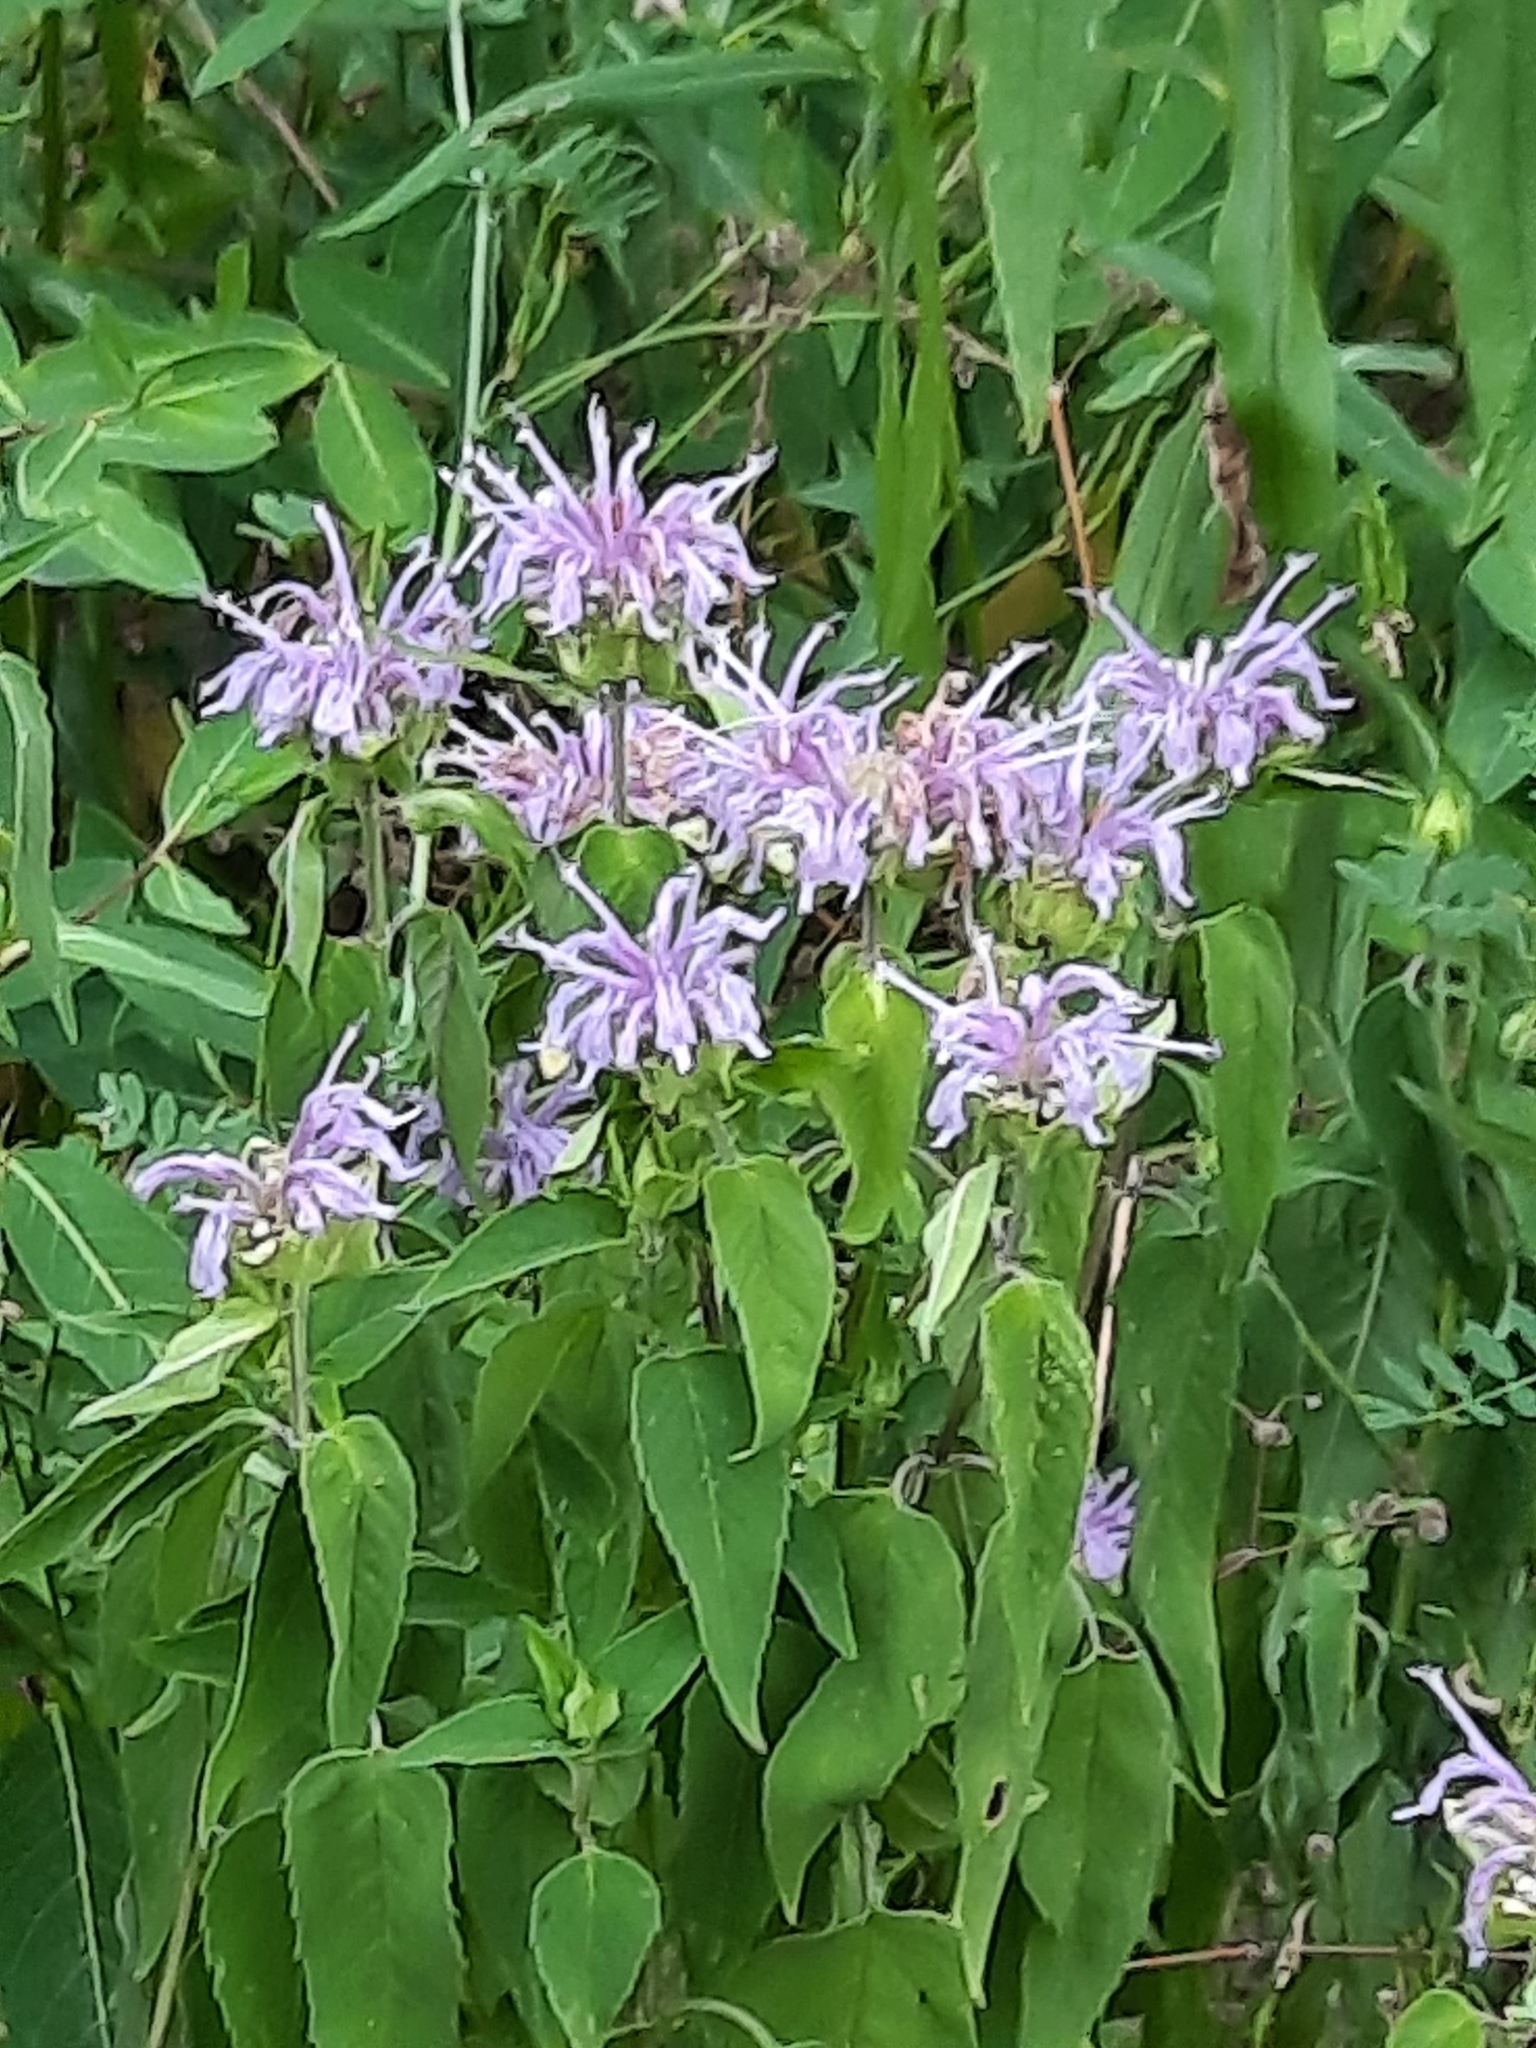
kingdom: Plantae
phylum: Tracheophyta
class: Magnoliopsida
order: Lamiales
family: Lamiaceae
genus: Monarda
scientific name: Monarda fistulosa
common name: Purple beebalm
